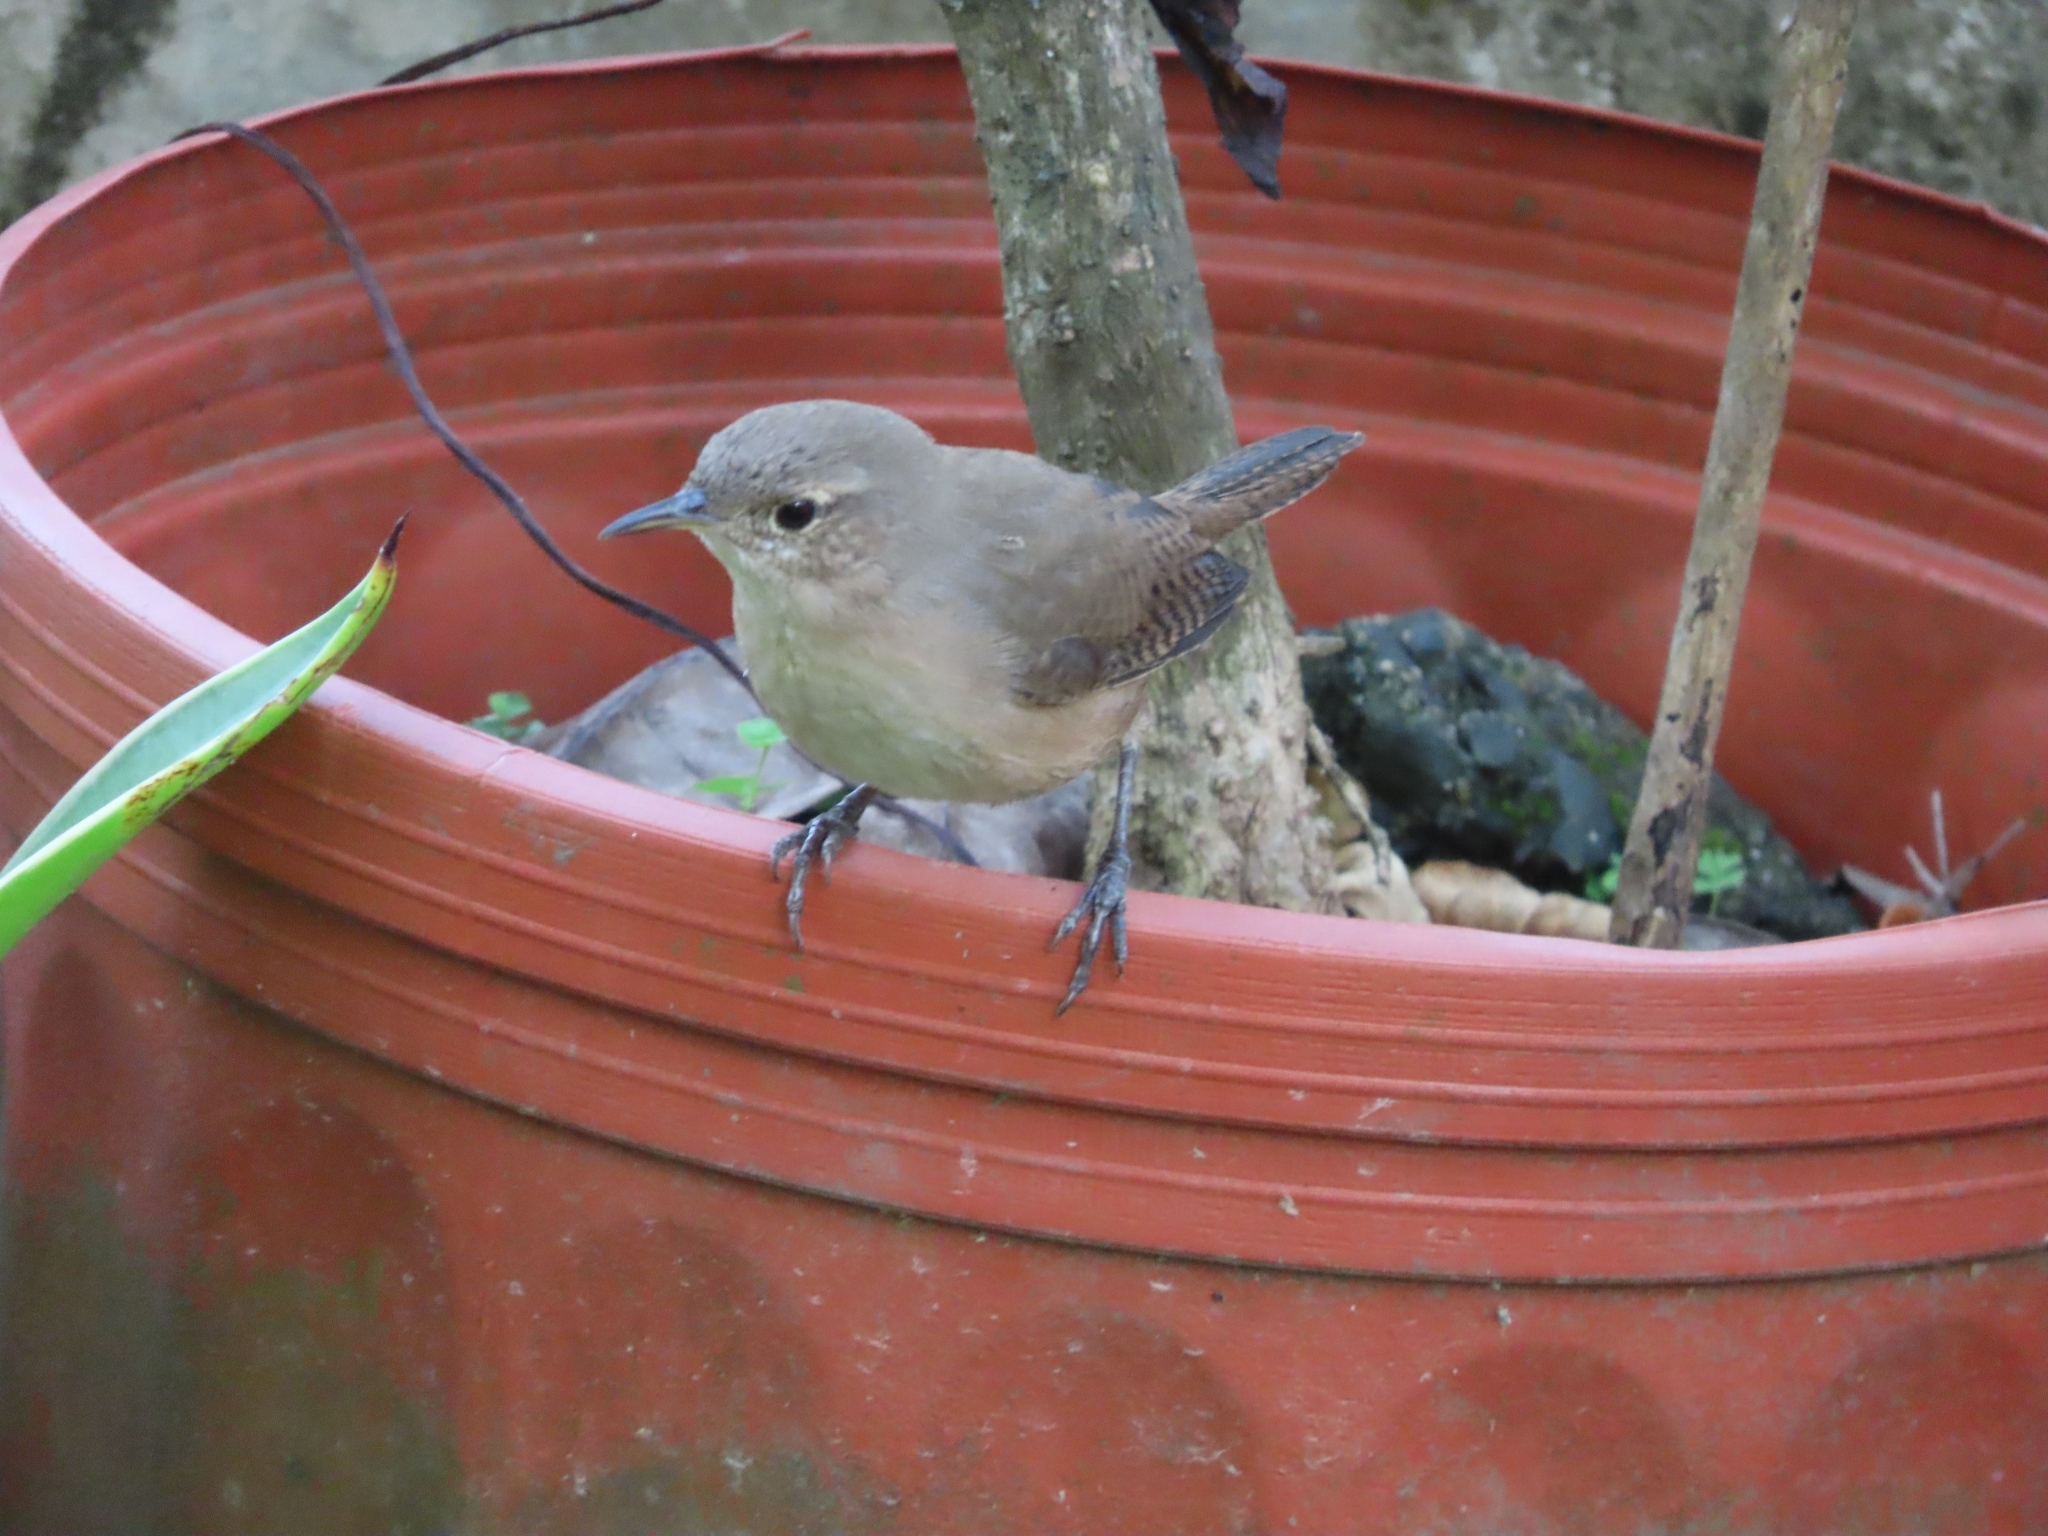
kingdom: Animalia
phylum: Chordata
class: Aves
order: Passeriformes
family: Troglodytidae
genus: Troglodytes
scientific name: Troglodytes aedon
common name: House wren
